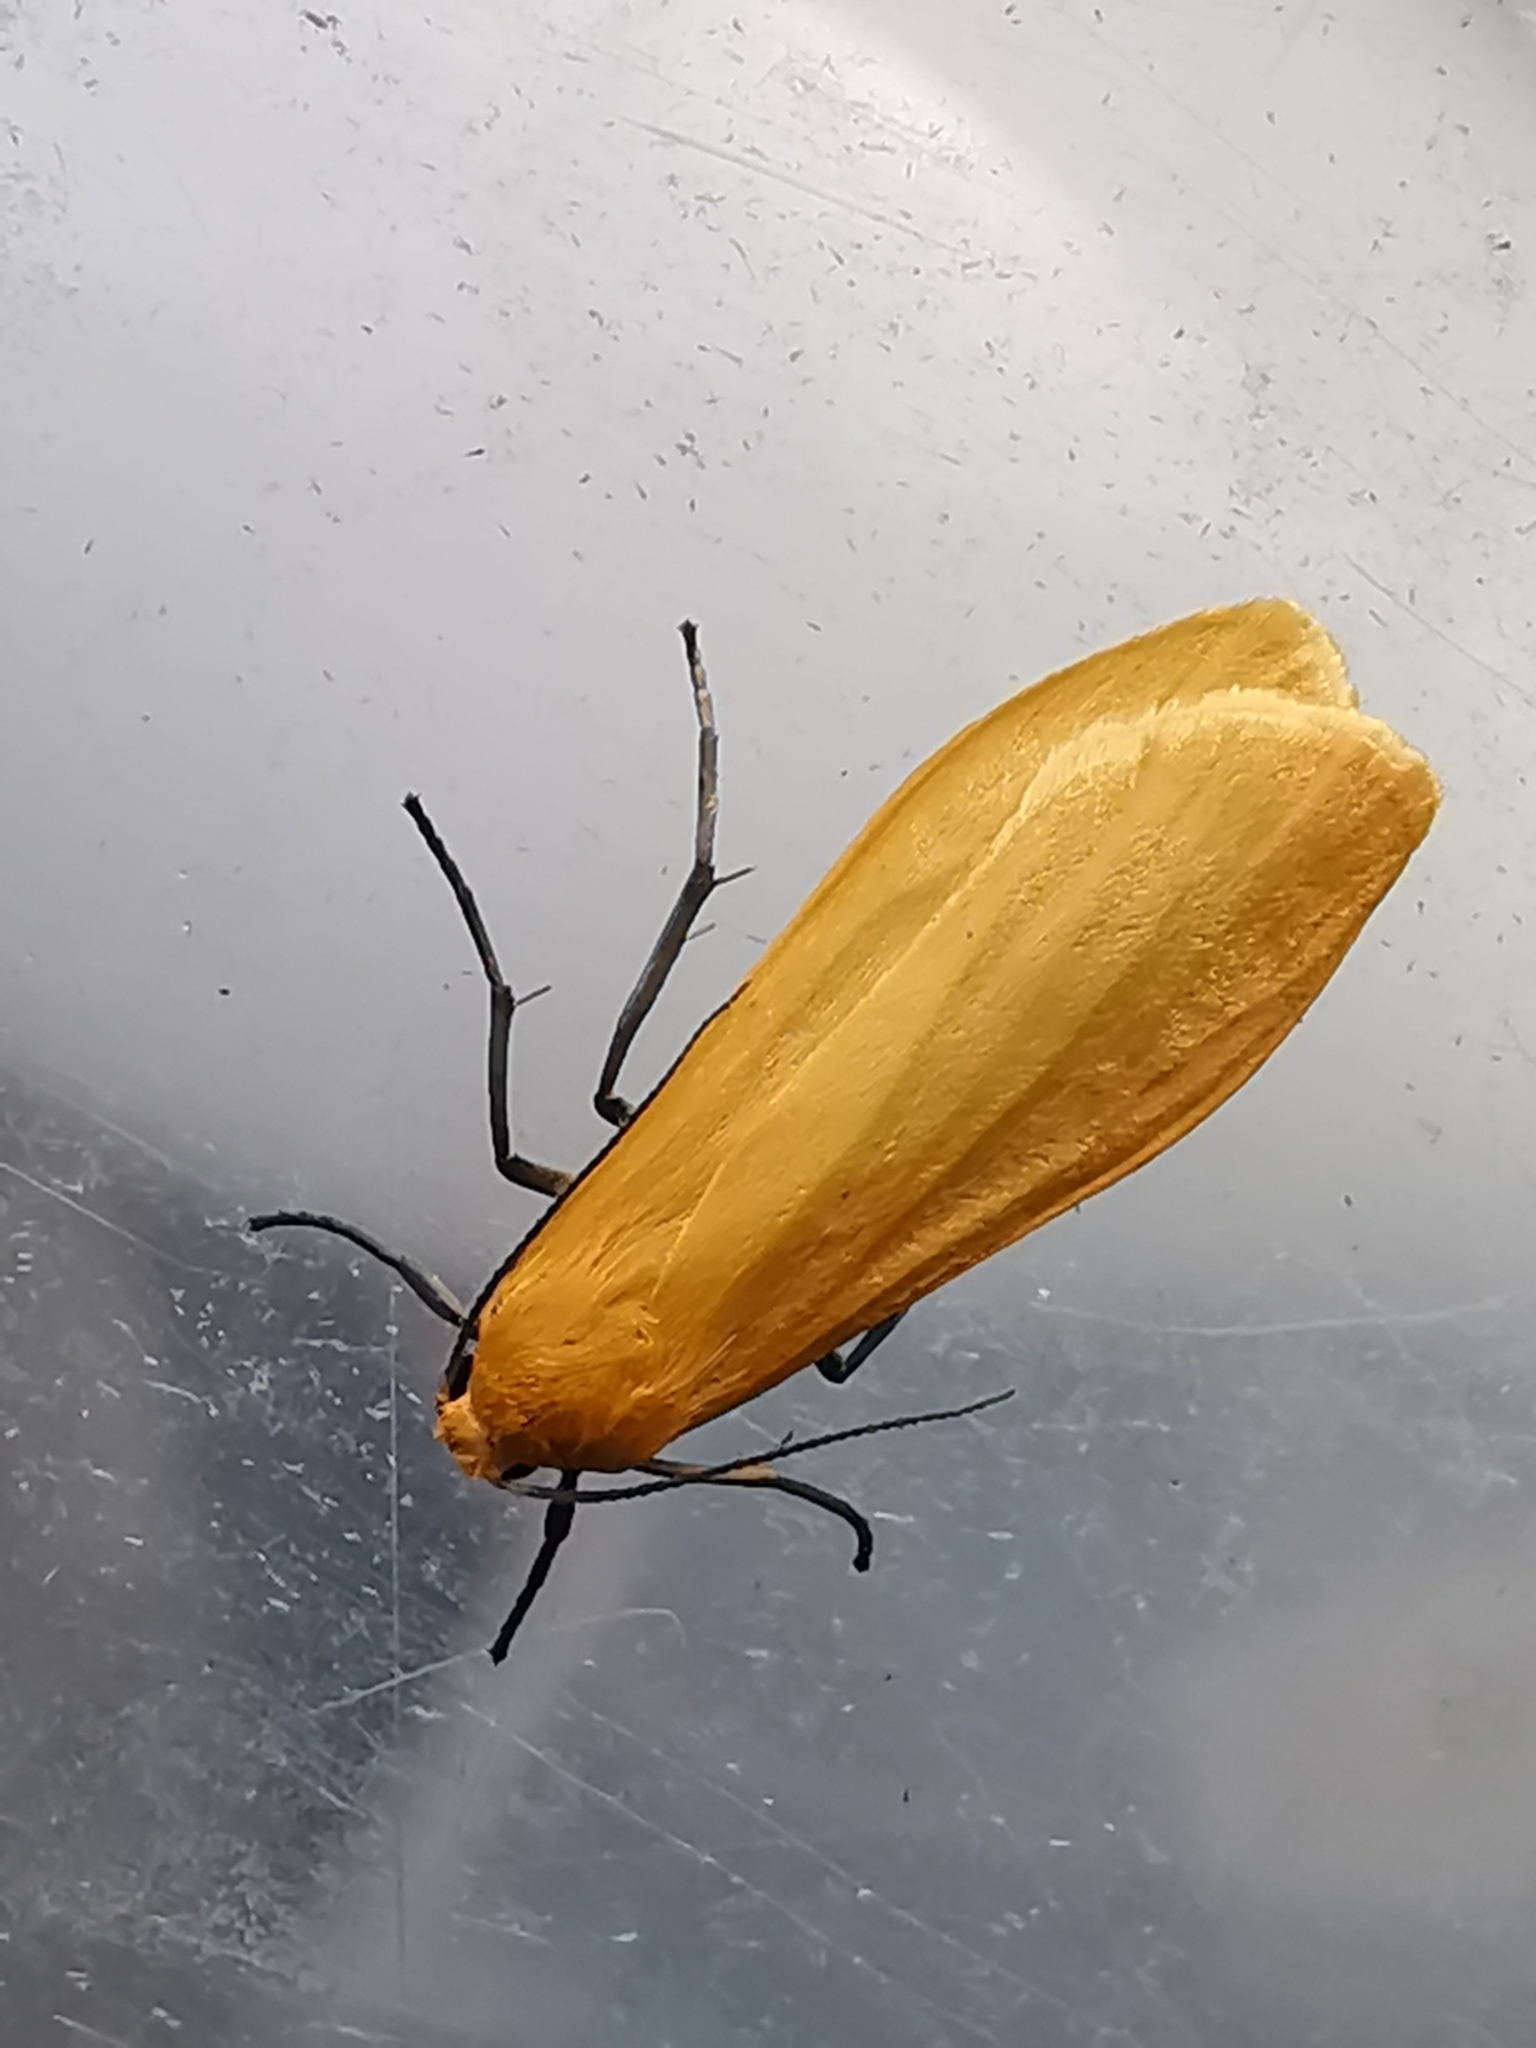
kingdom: Animalia
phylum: Arthropoda
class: Insecta
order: Lepidoptera
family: Erebidae
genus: Wittia
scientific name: Wittia sororcula
